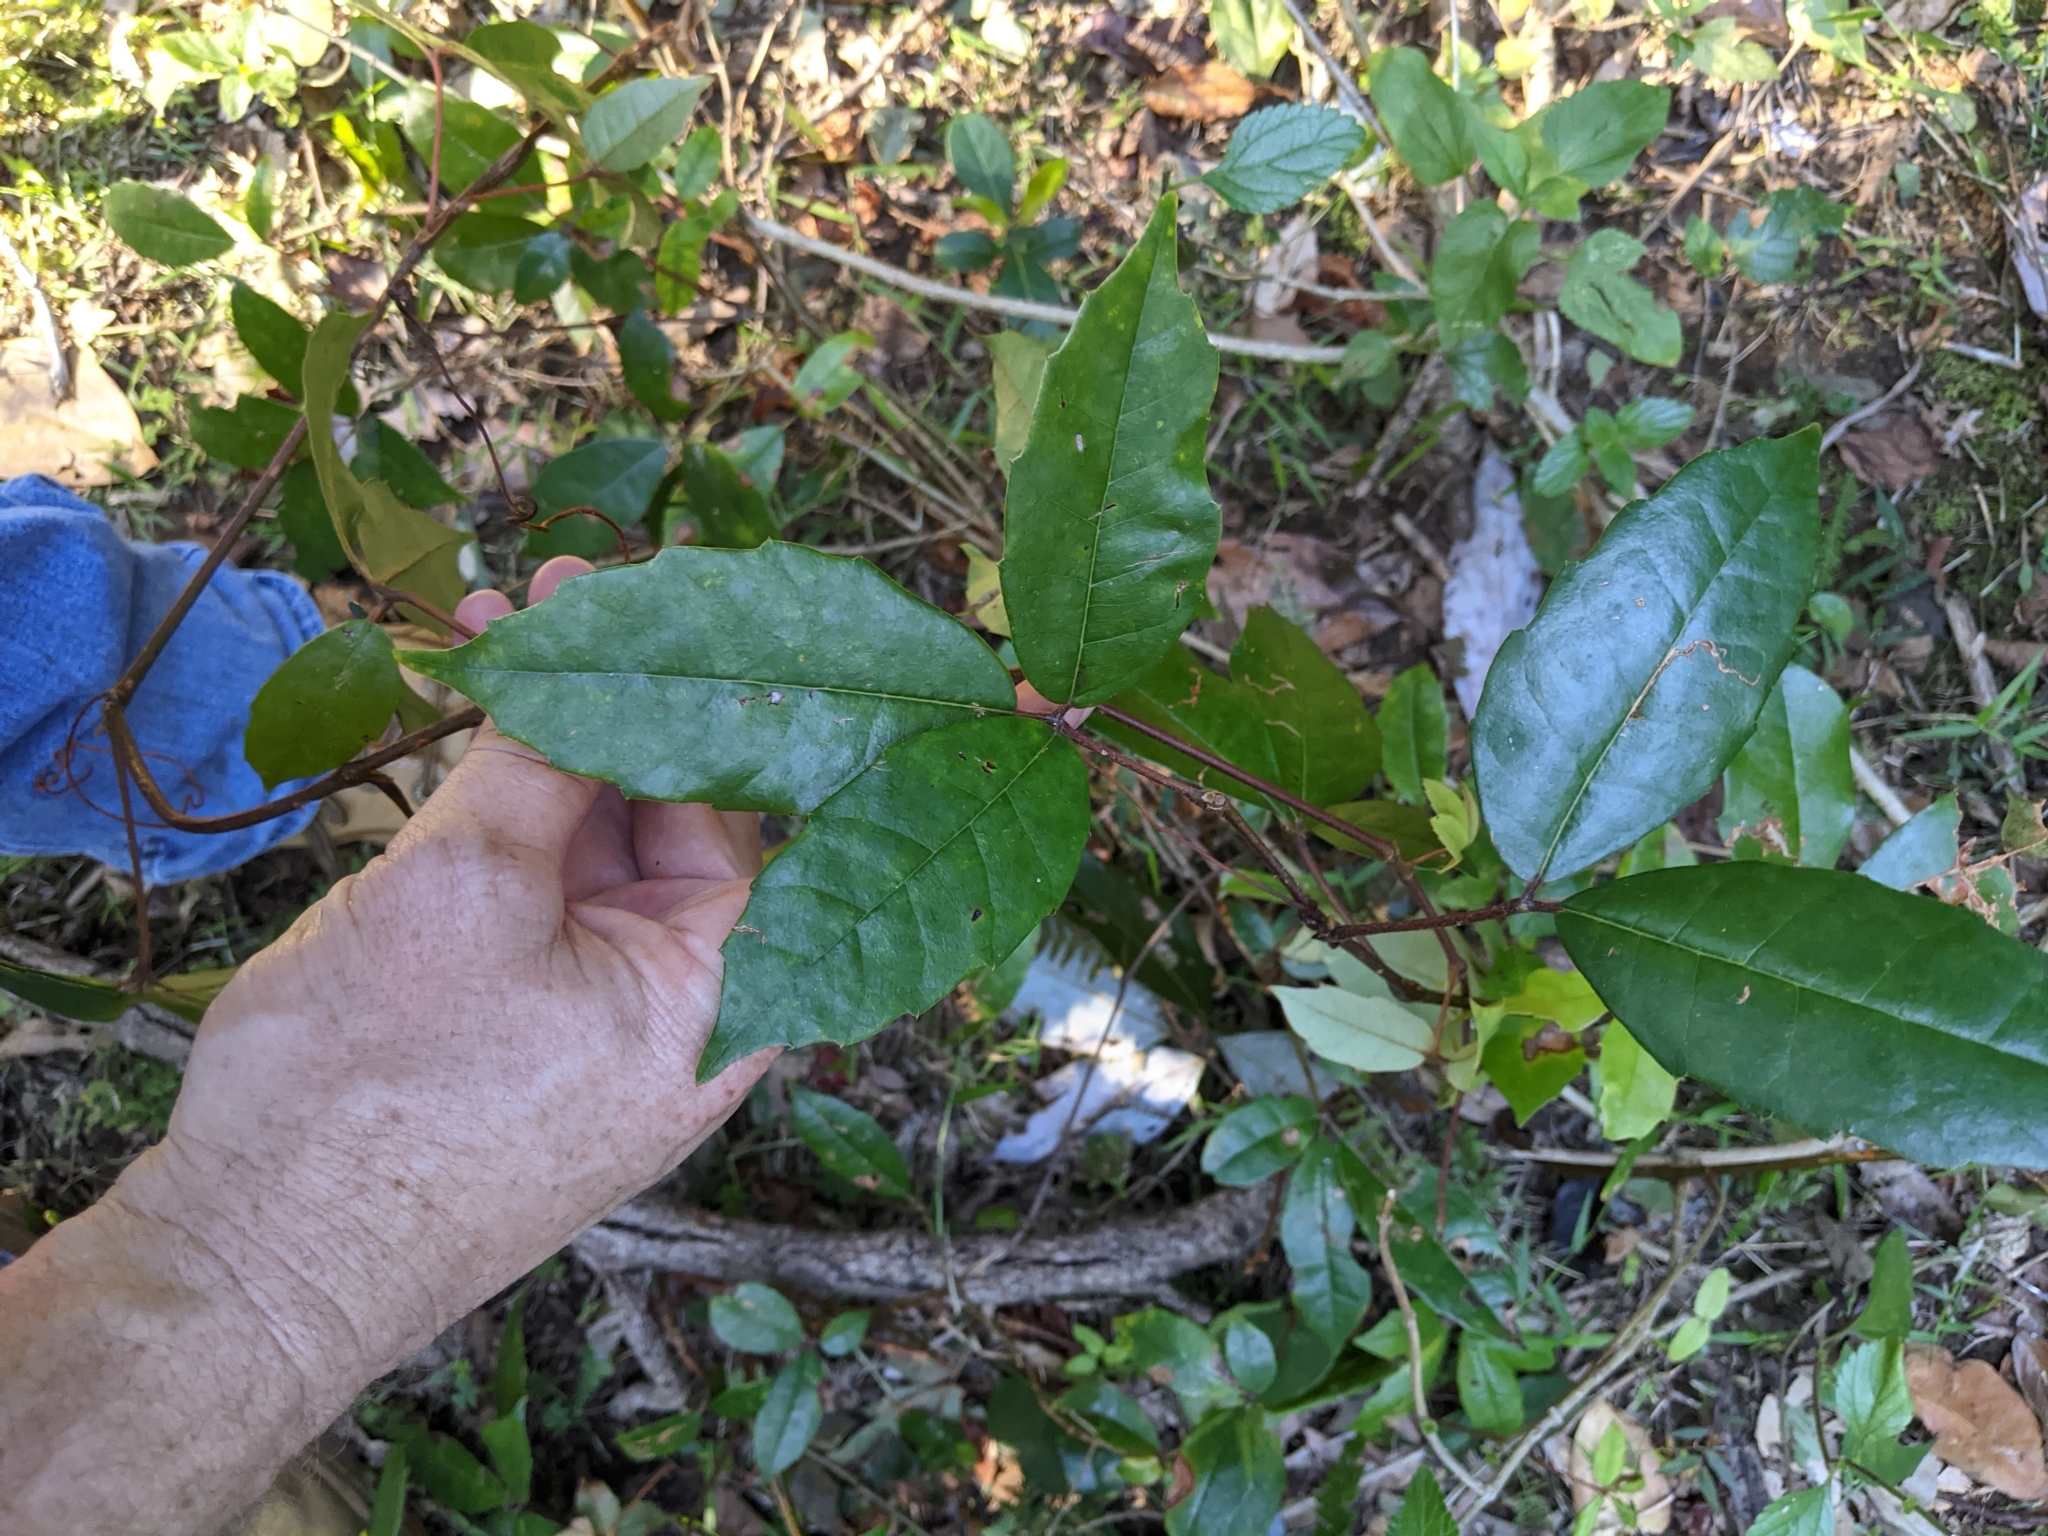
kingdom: Plantae
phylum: Tracheophyta
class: Magnoliopsida
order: Vitales
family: Vitaceae
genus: Nothocissus
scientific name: Nothocissus hypoglauca
